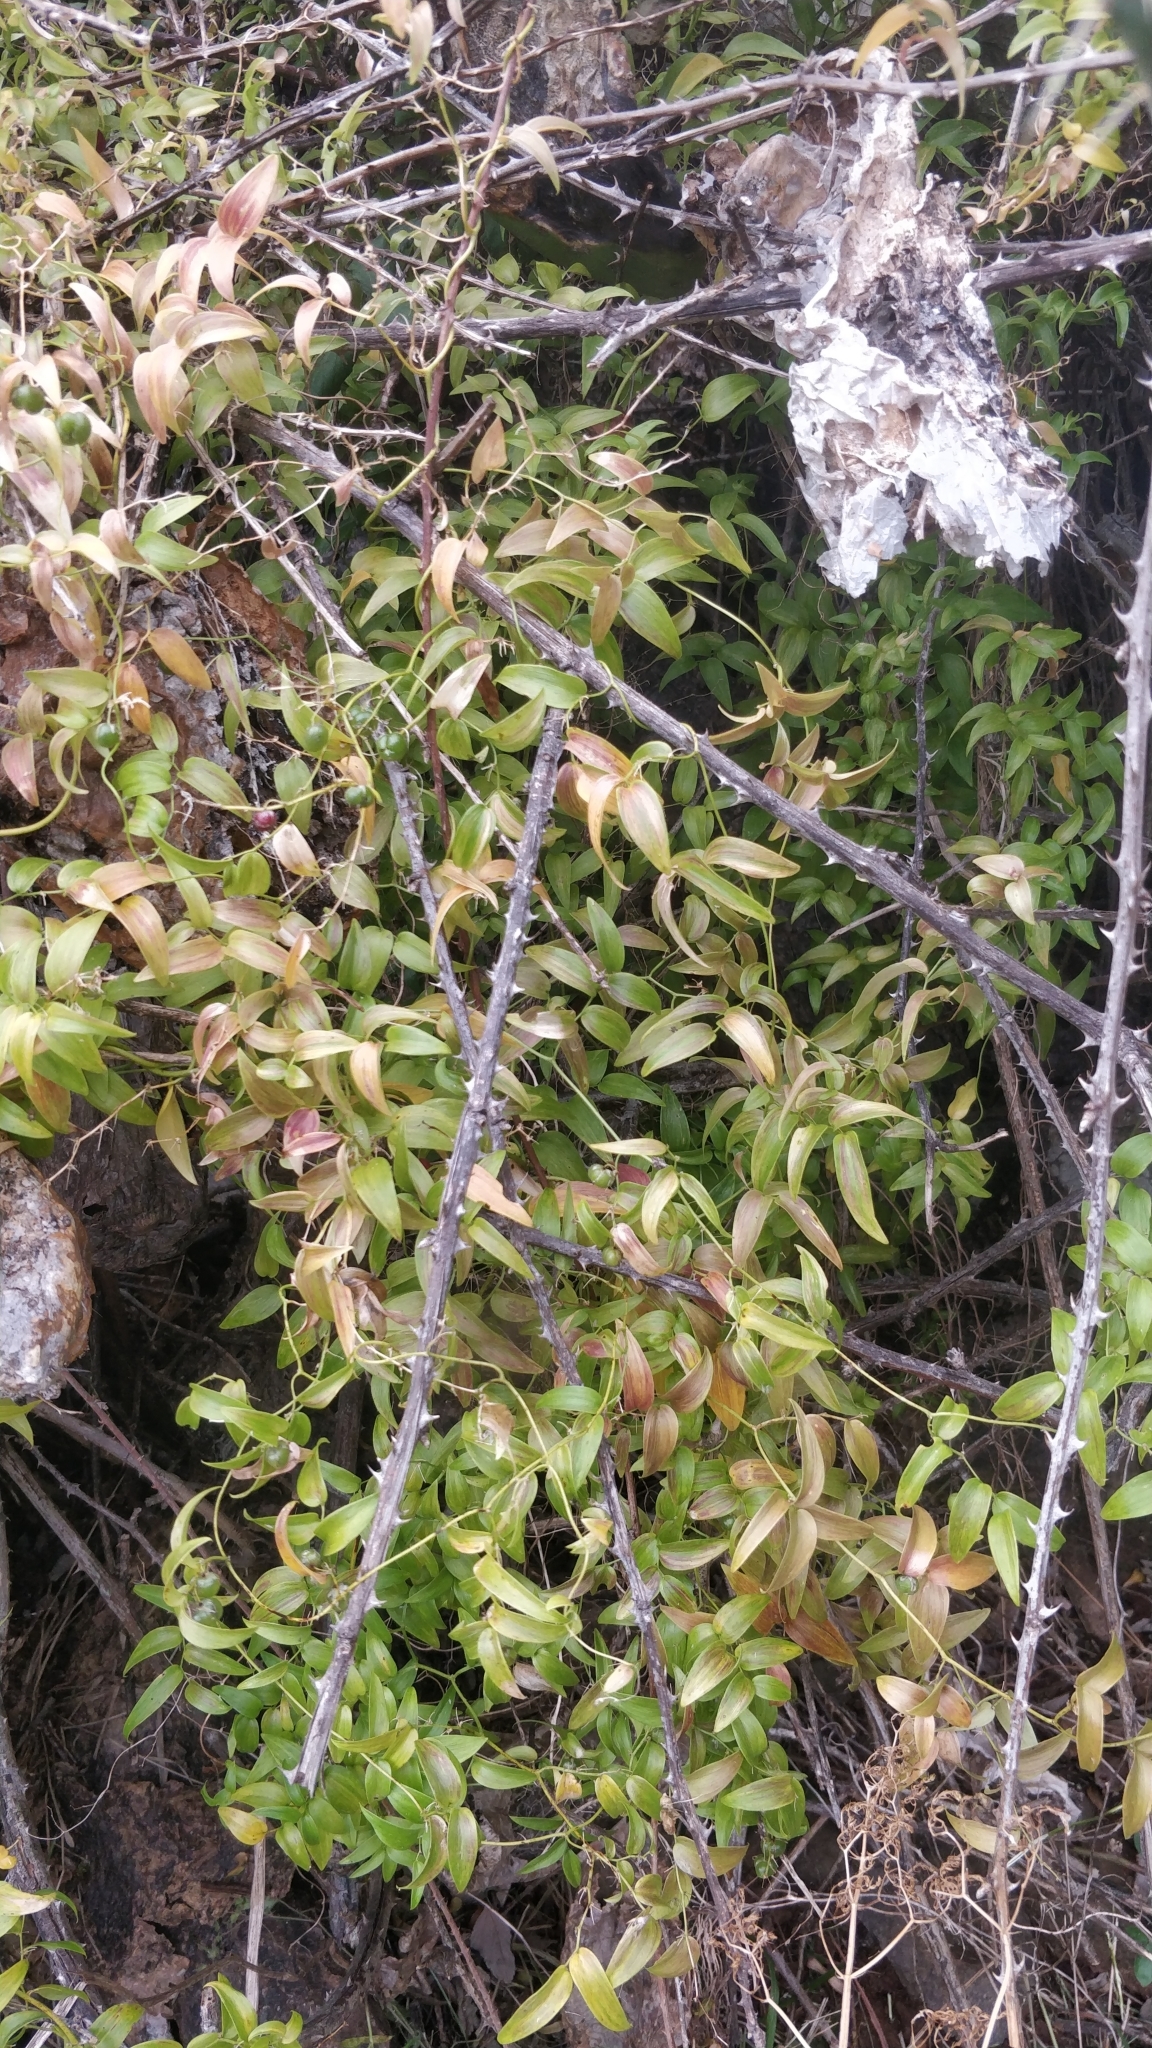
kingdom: Plantae
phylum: Tracheophyta
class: Liliopsida
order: Asparagales
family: Asparagaceae
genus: Asparagus
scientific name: Asparagus asparagoides
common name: African asparagus fern
